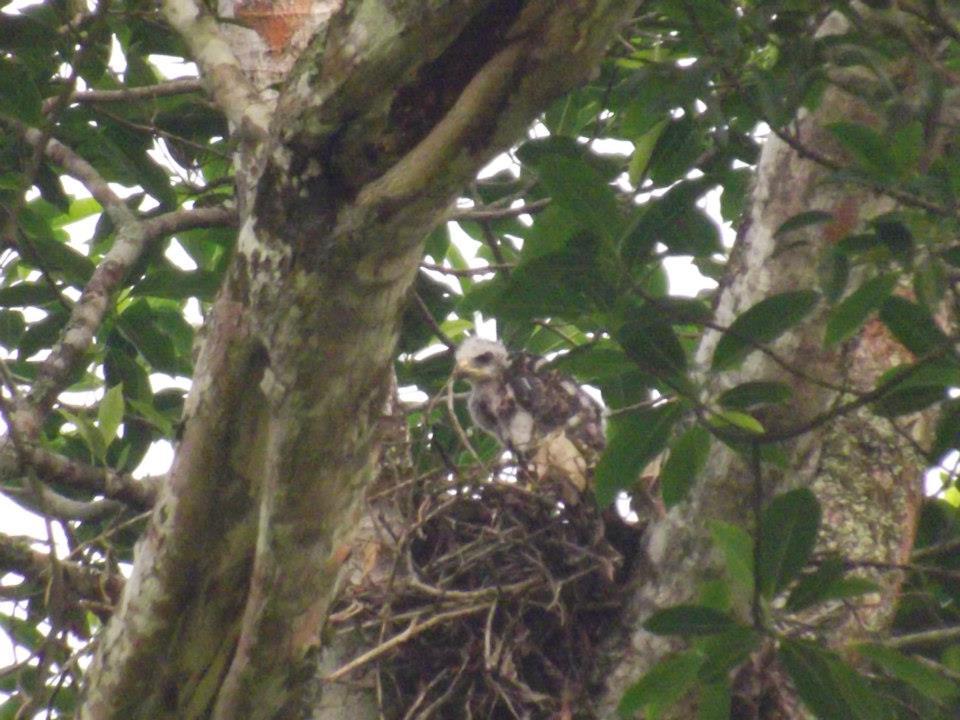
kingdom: Animalia
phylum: Chordata
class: Aves
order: Accipitriformes
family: Accipitridae
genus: Buteo
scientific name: Buteo nitidus
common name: Grey-lined hawk
